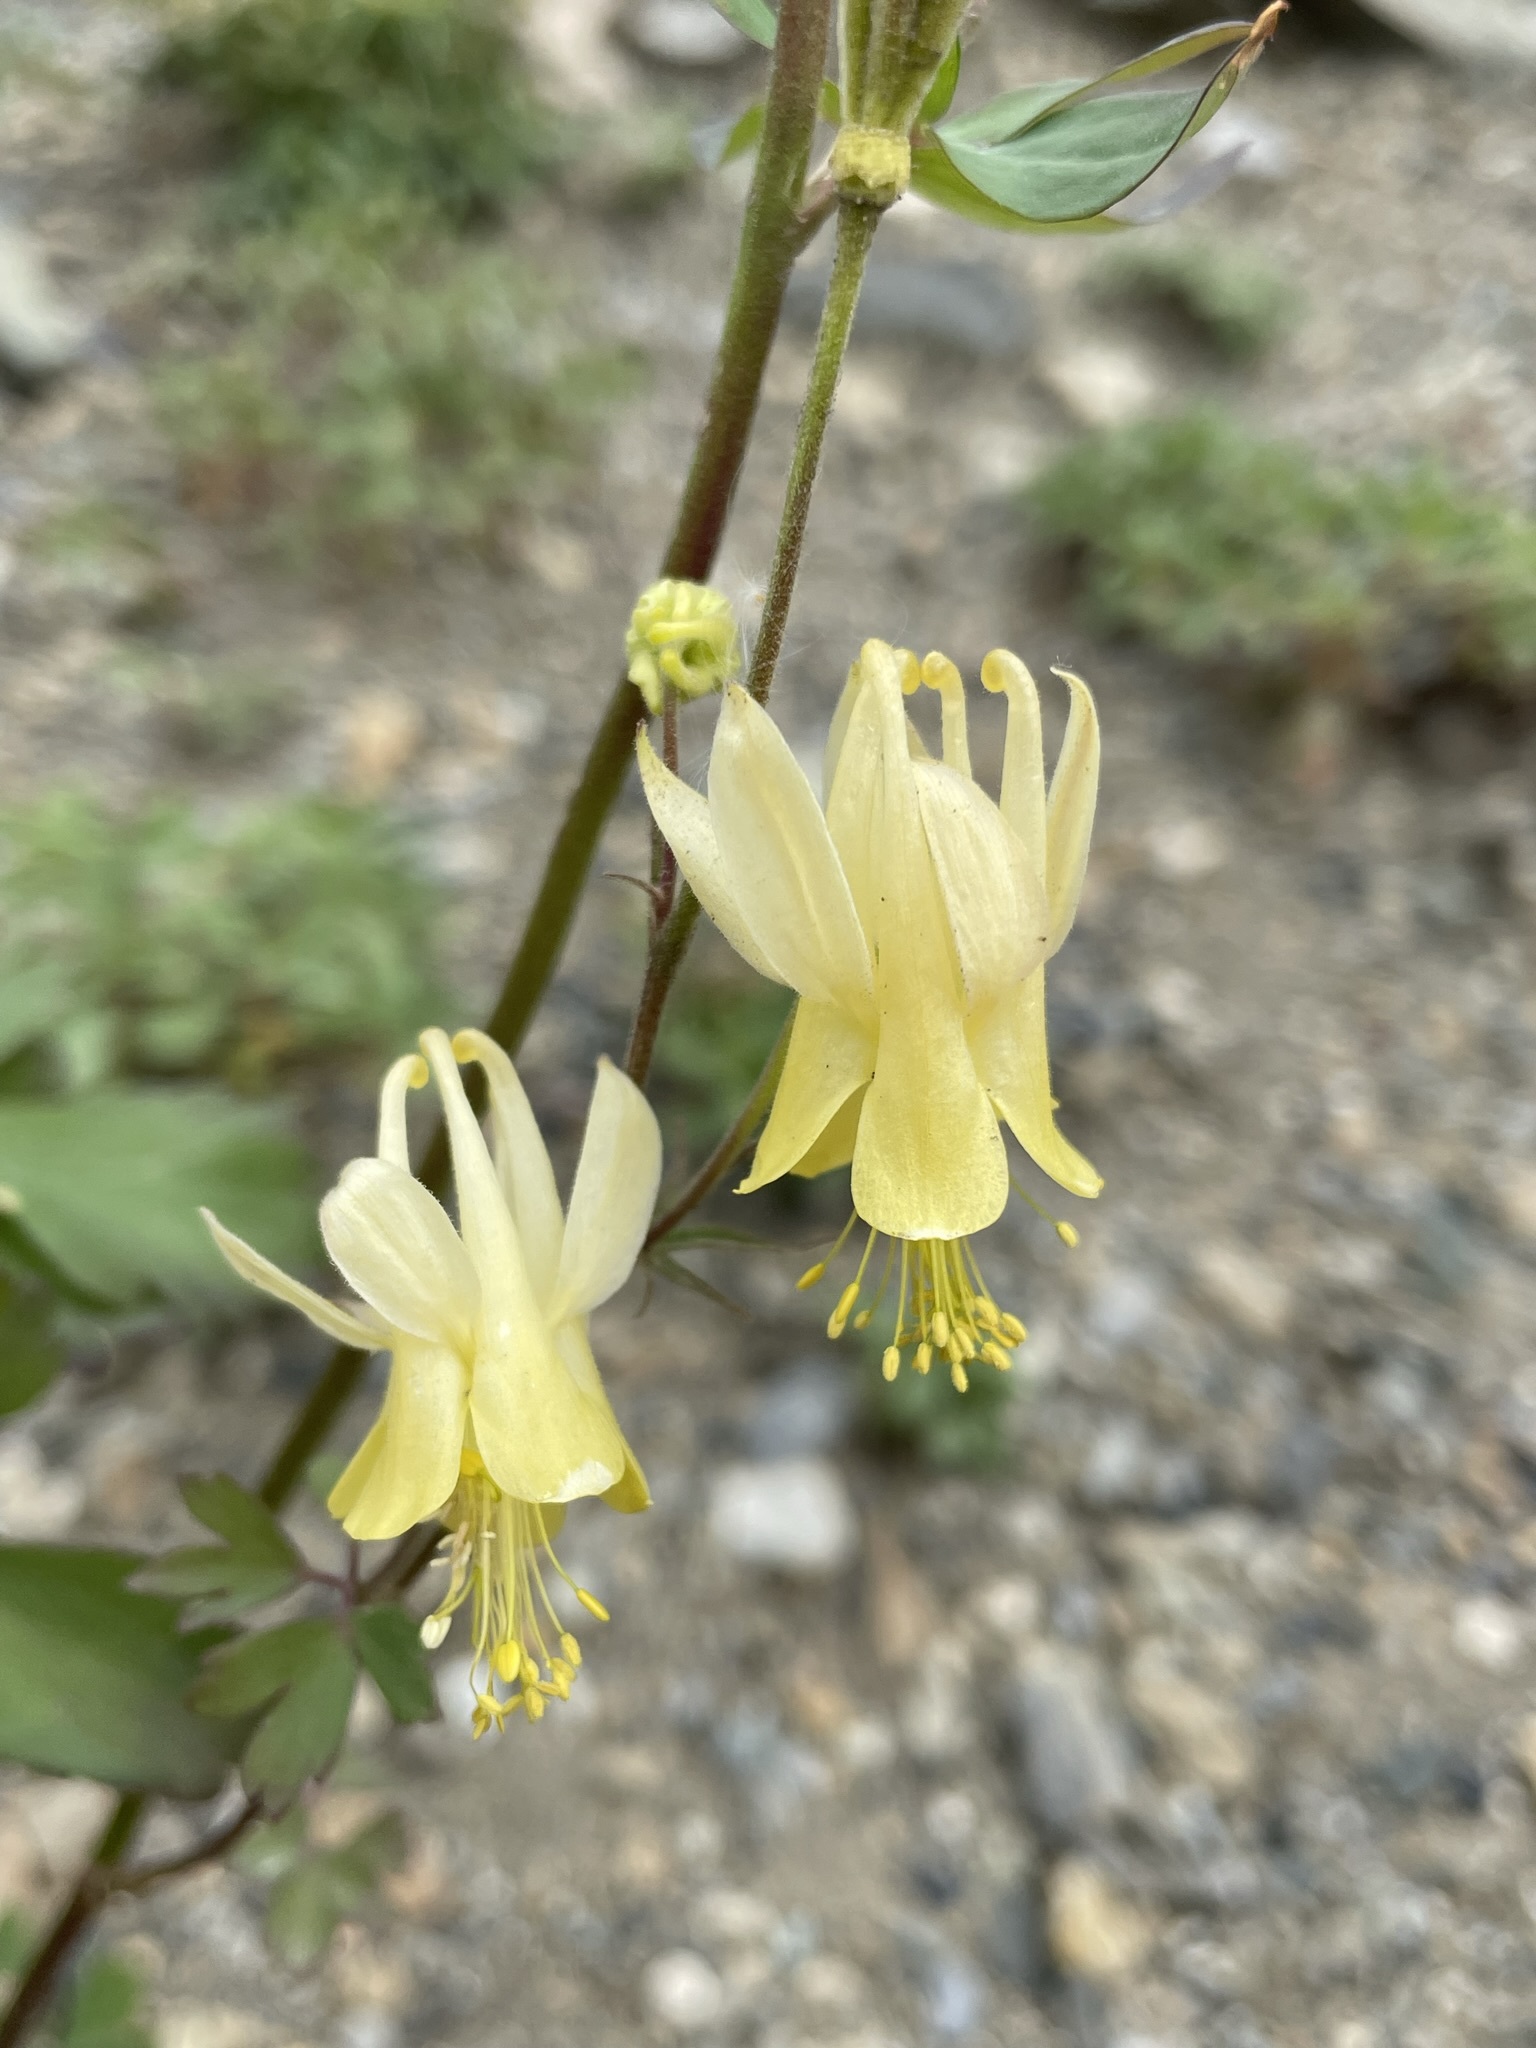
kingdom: Plantae
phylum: Tracheophyta
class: Magnoliopsida
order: Ranunculales
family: Ranunculaceae
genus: Aquilegia
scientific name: Aquilegia flavescens
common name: Yellow columbine
